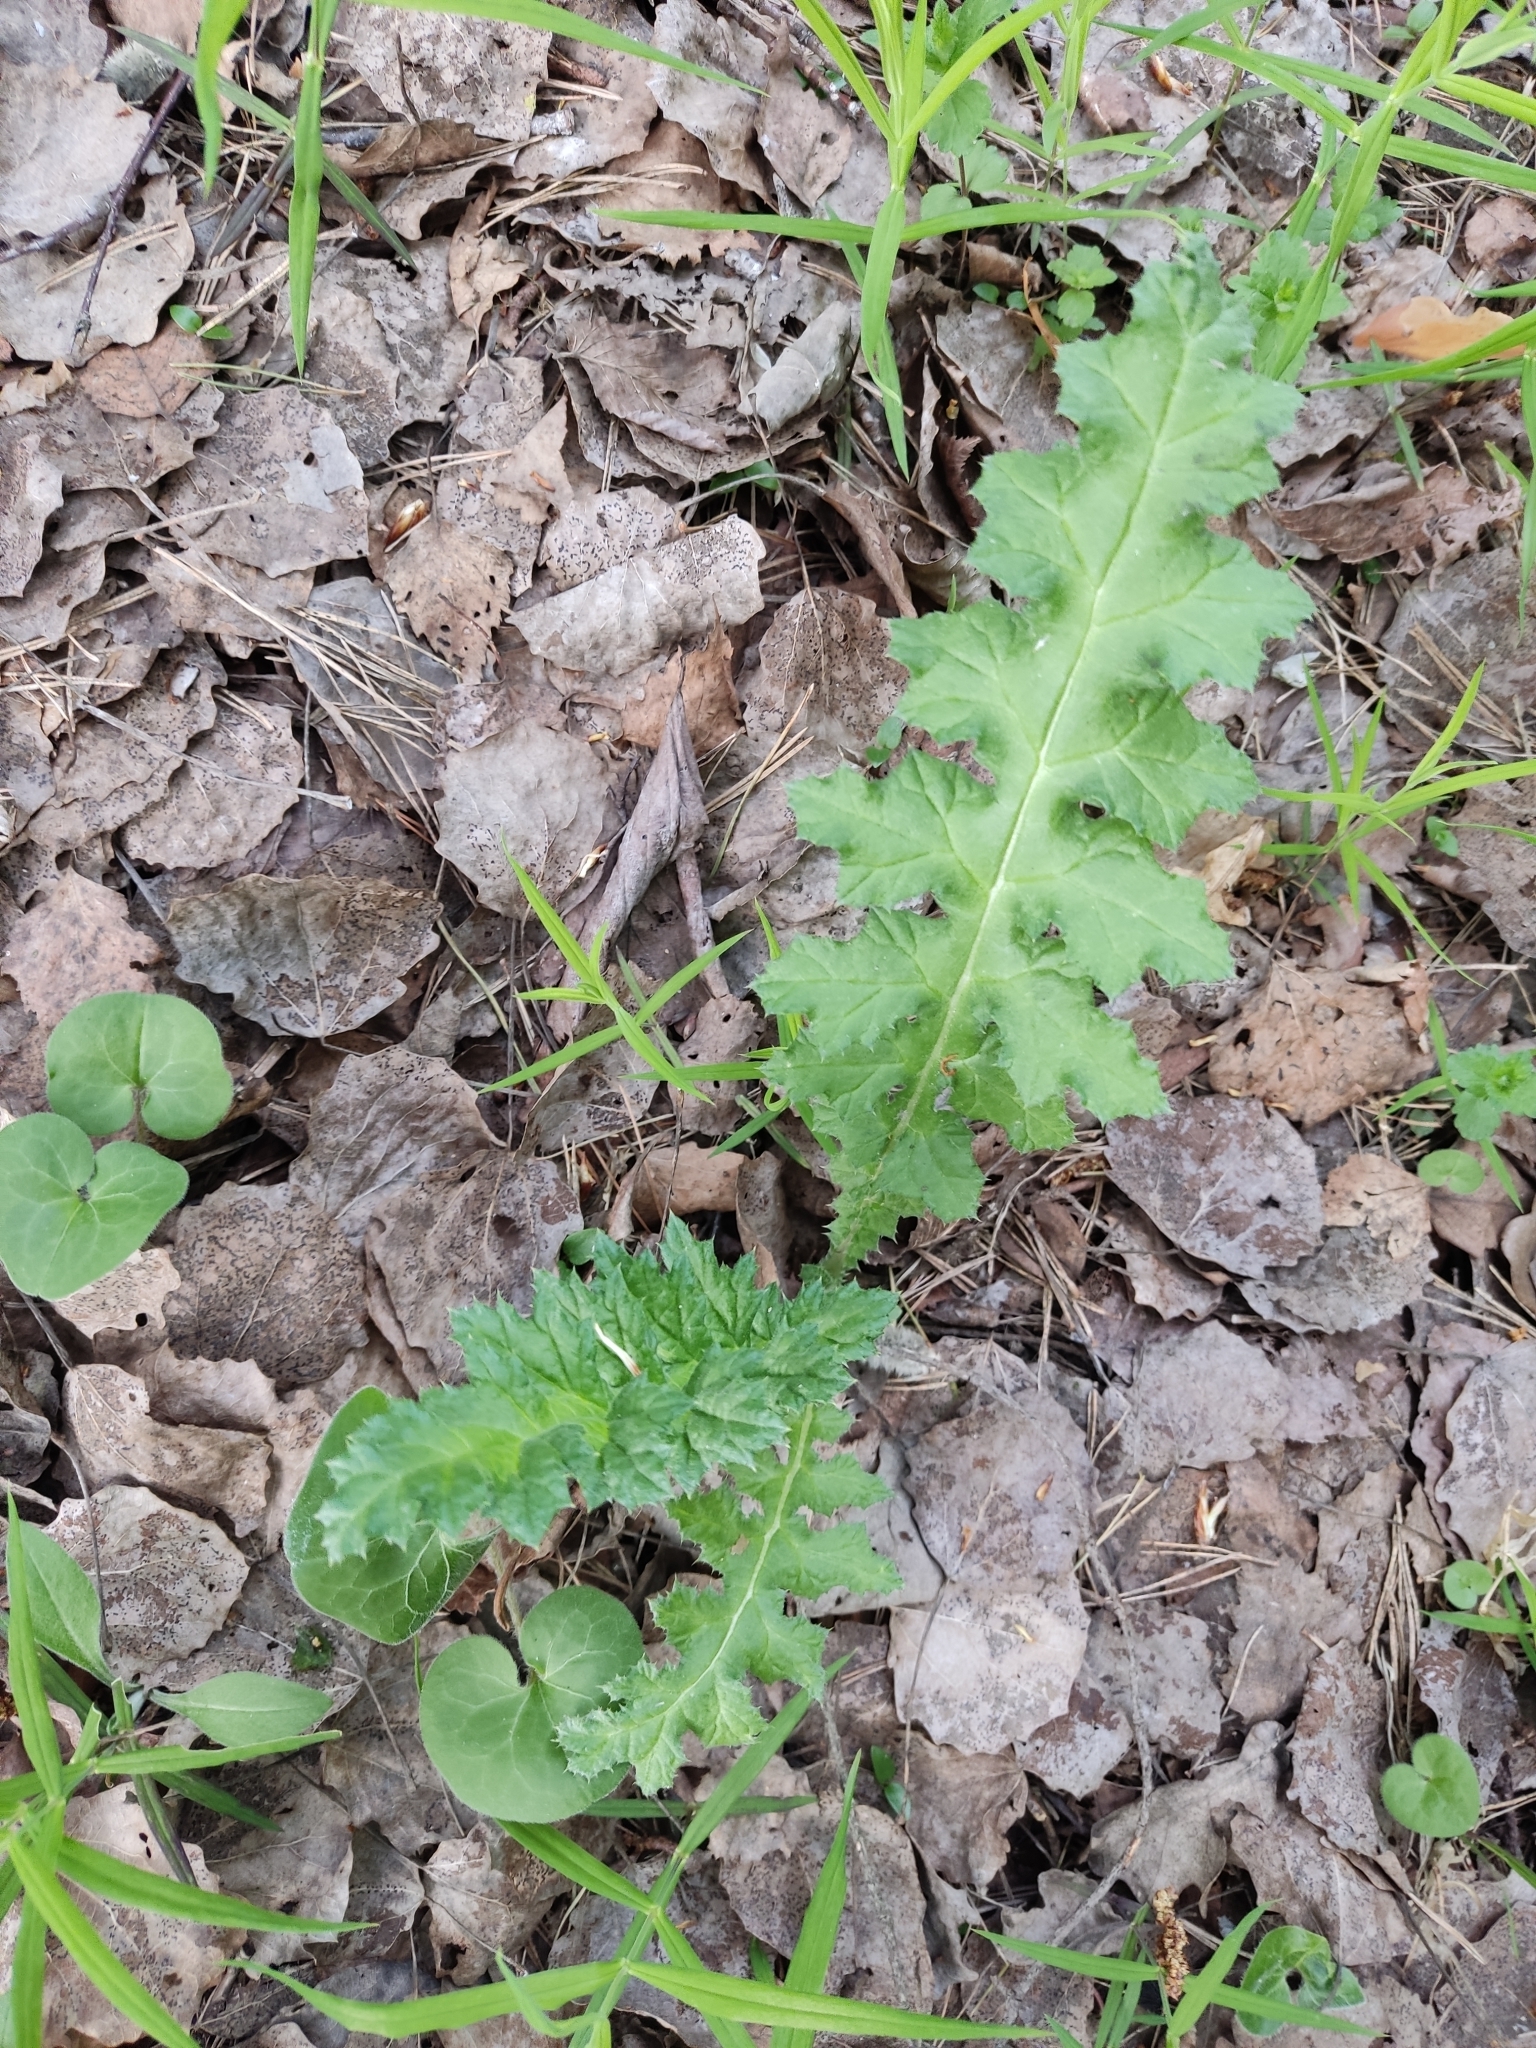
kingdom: Plantae
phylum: Tracheophyta
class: Magnoliopsida
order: Asterales
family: Asteraceae
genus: Echinops
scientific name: Echinops sphaerocephalus
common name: Glandular globe-thistle
